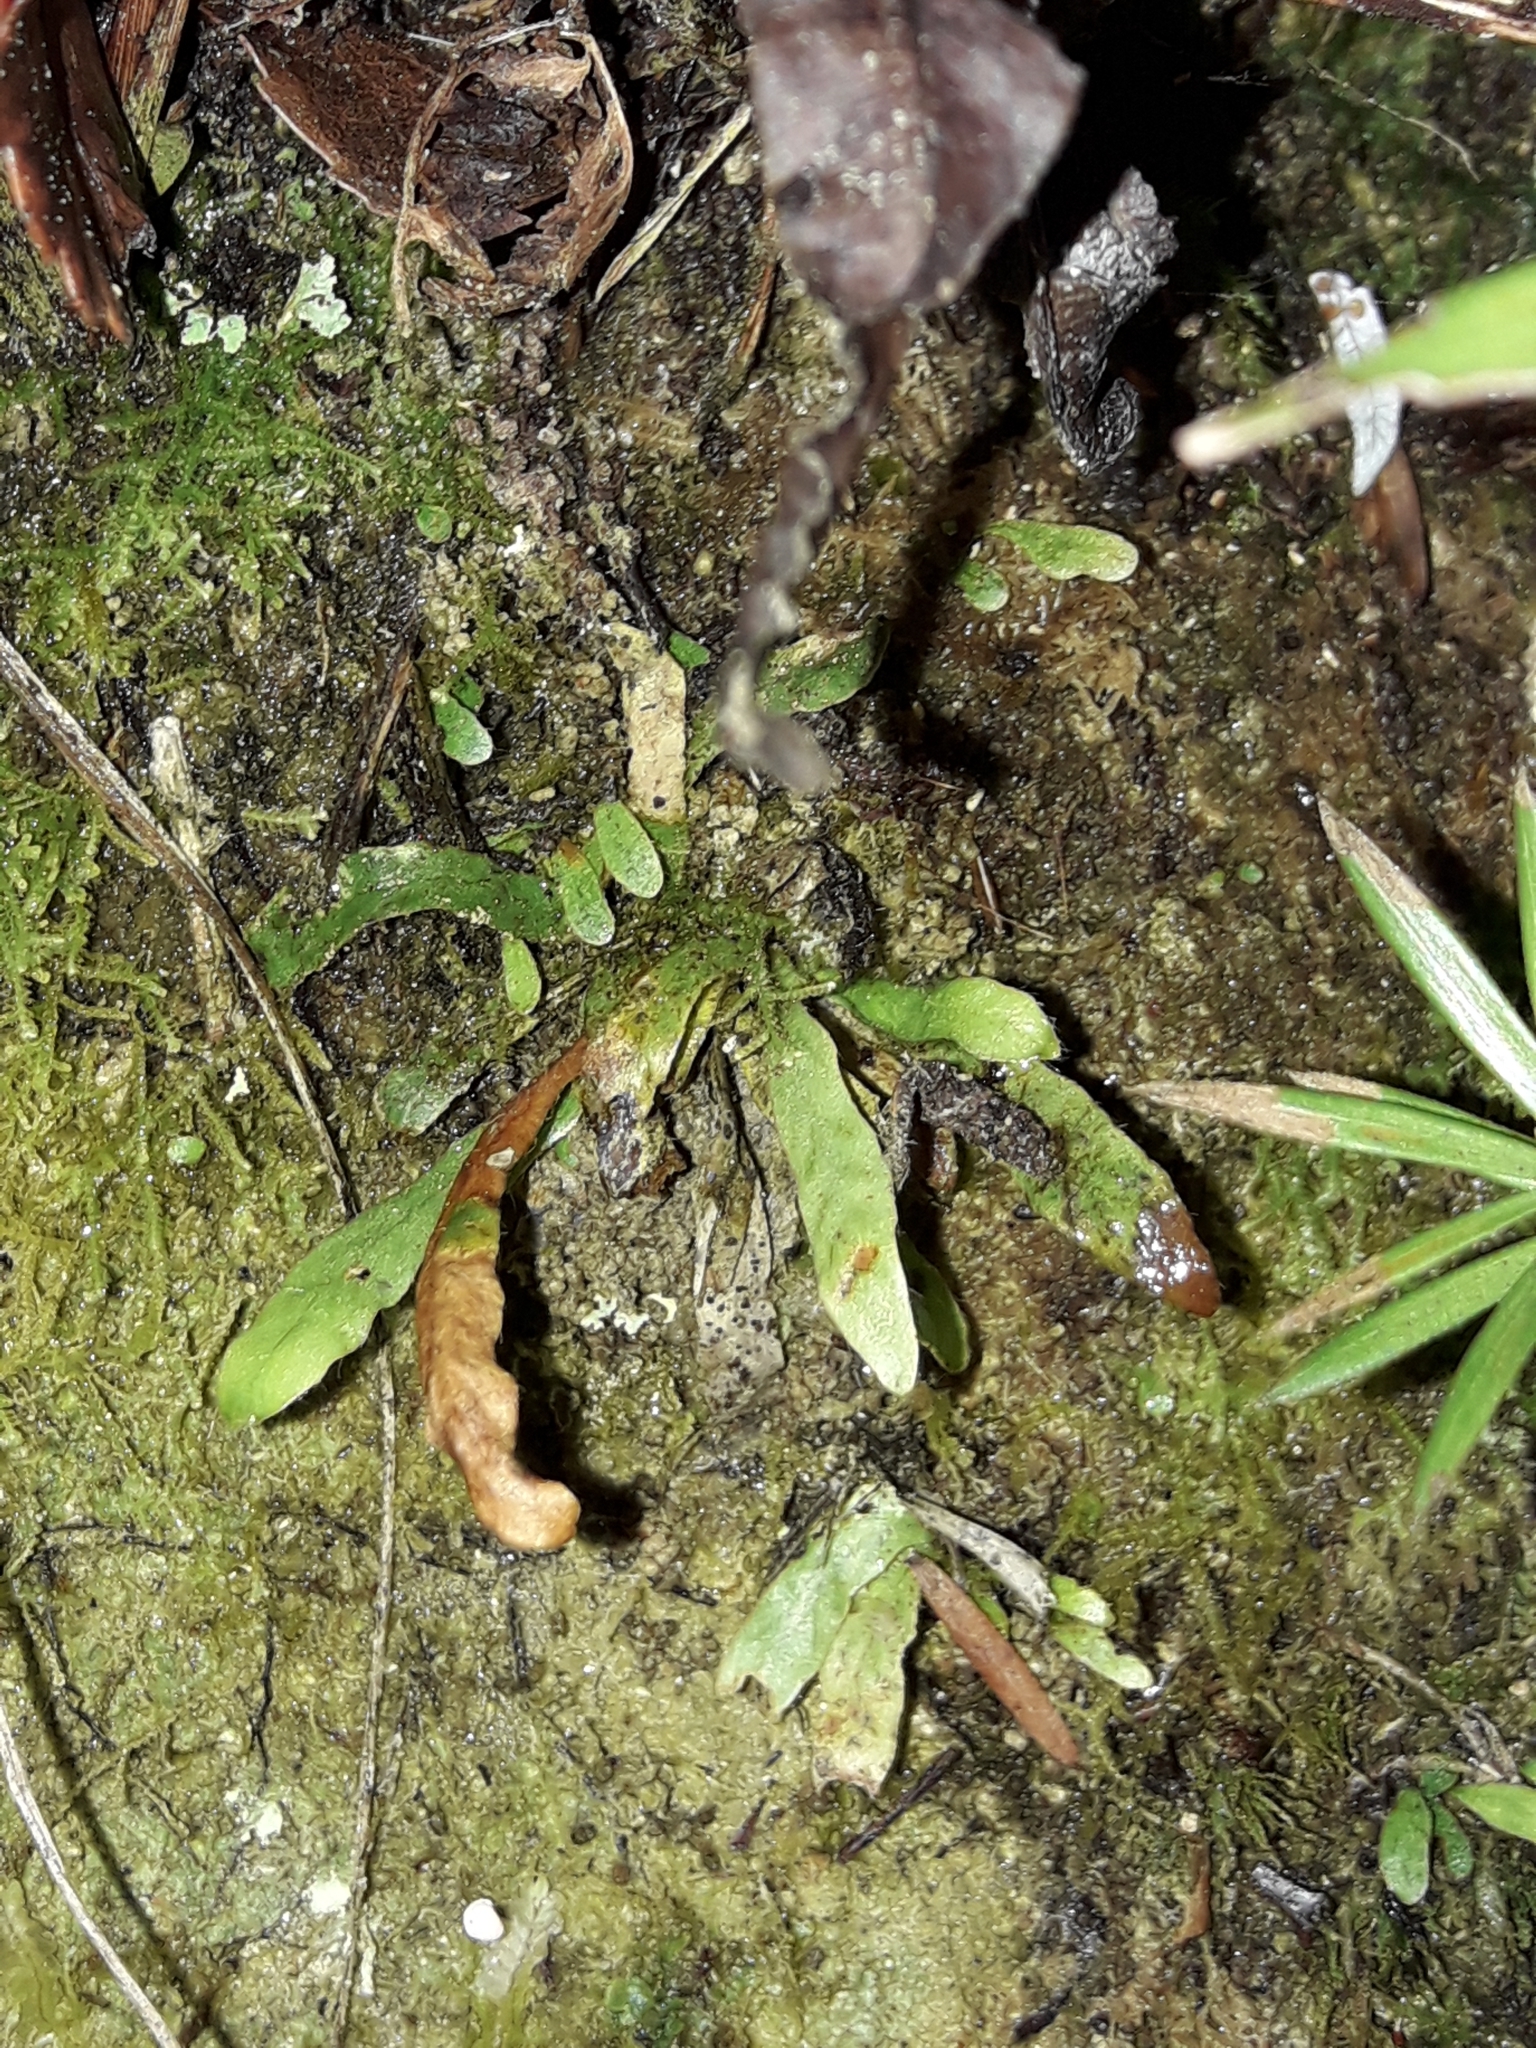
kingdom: Plantae
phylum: Tracheophyta
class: Polypodiopsida
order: Polypodiales
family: Polypodiaceae
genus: Notogrammitis
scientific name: Notogrammitis ciliata
